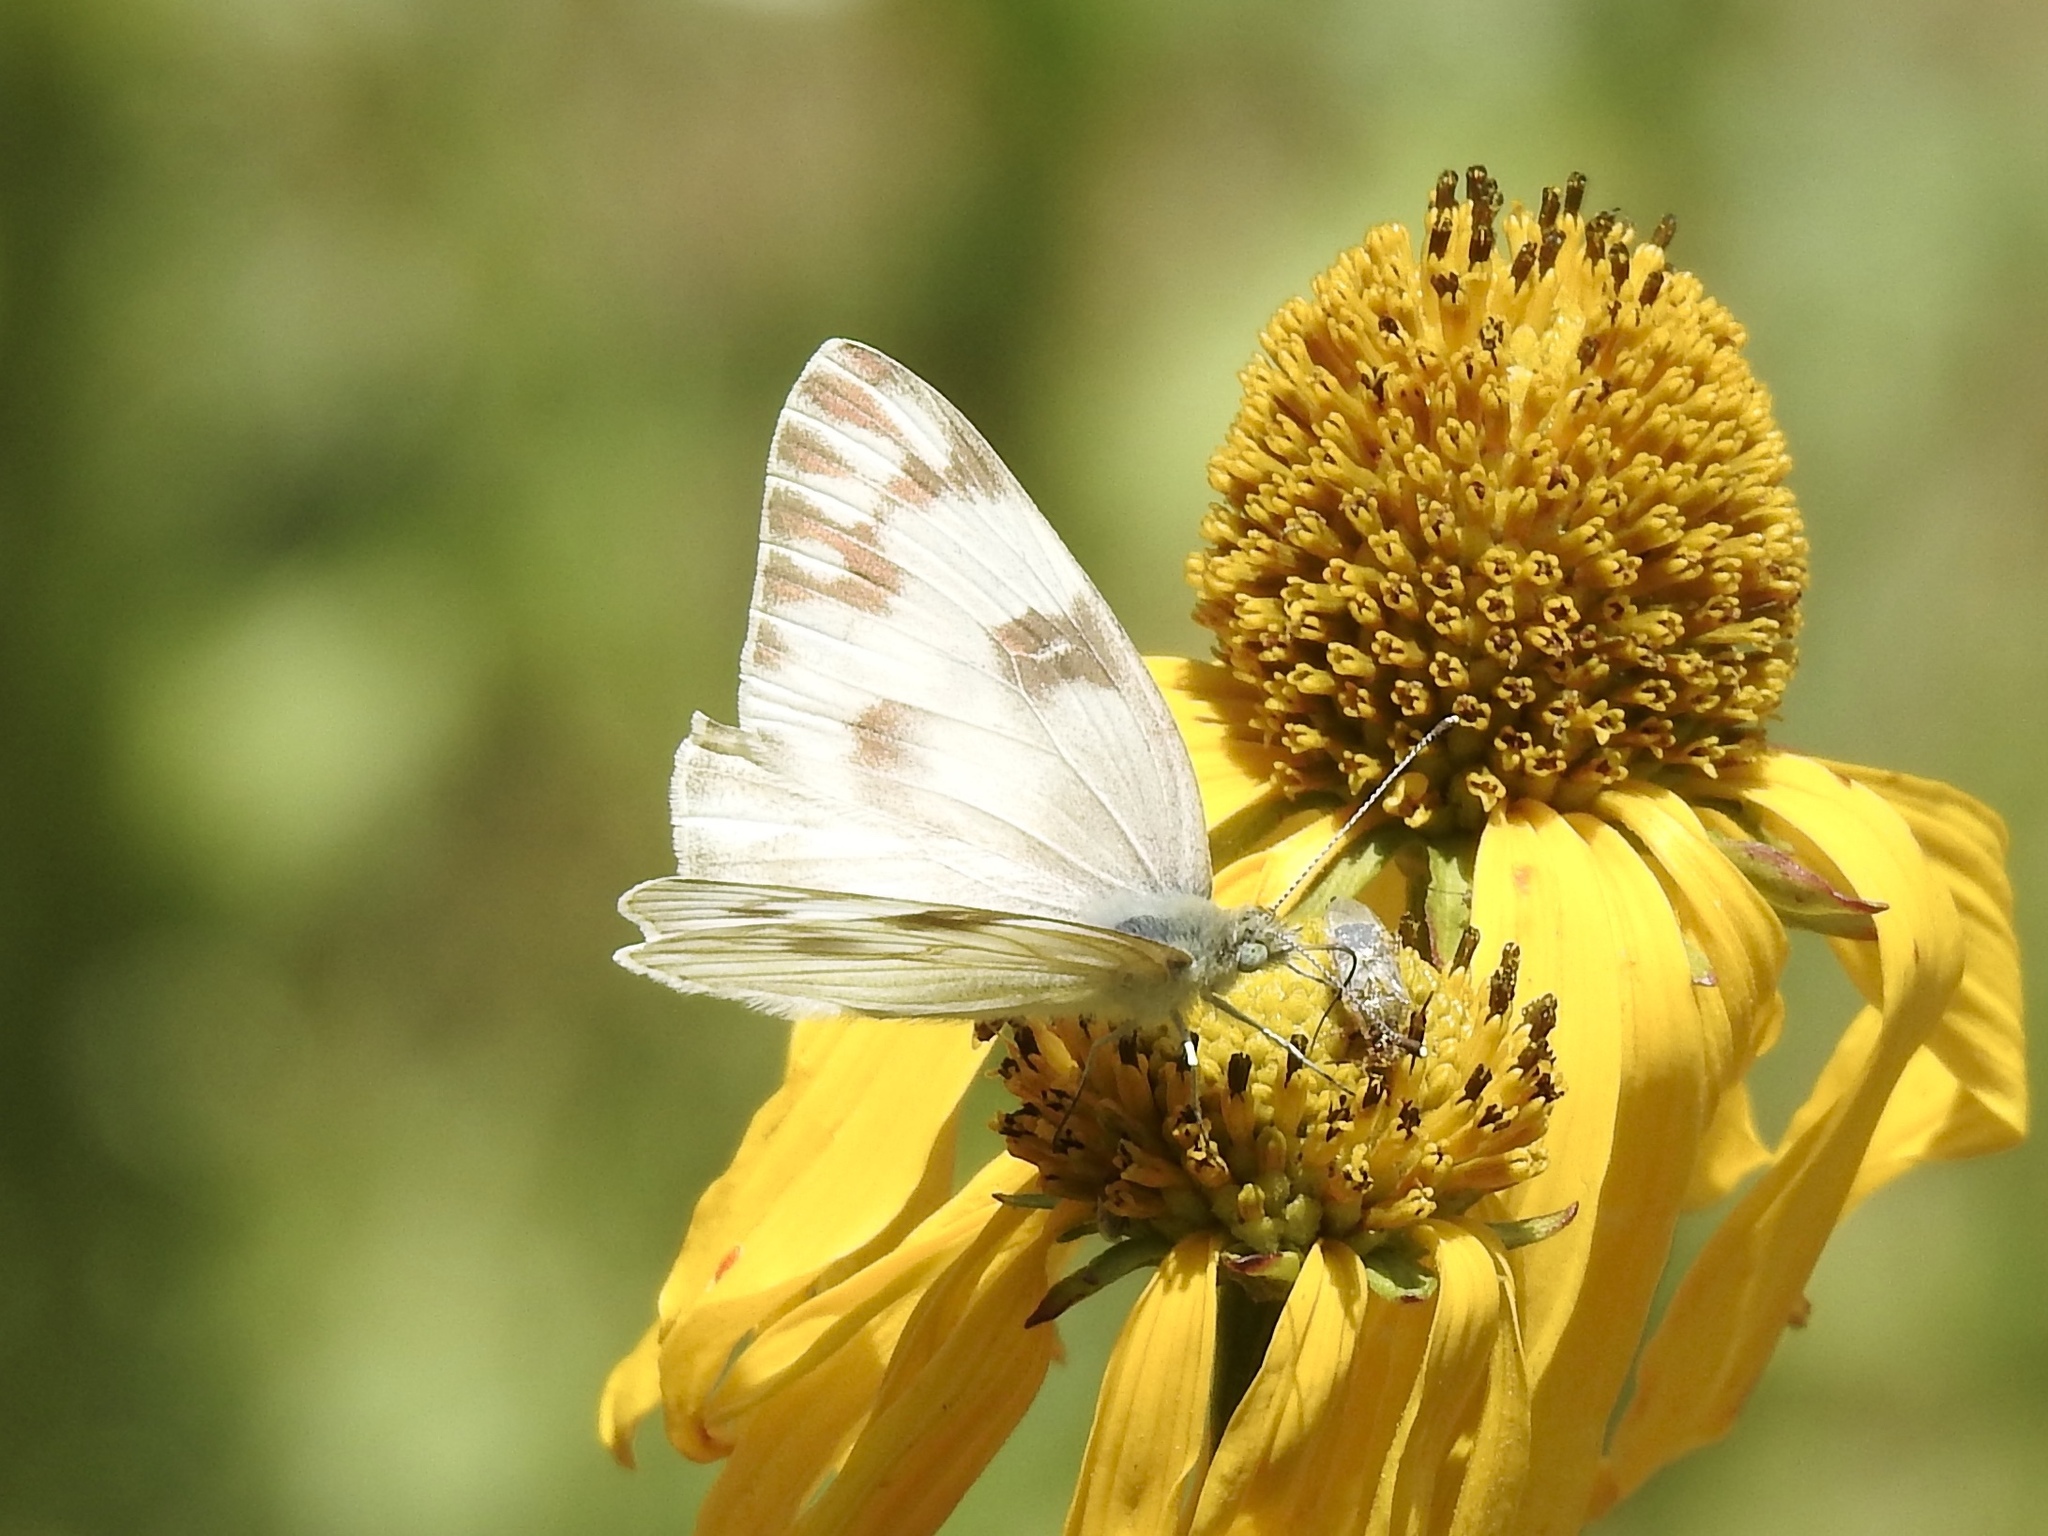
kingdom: Animalia
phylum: Arthropoda
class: Insecta
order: Lepidoptera
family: Pieridae
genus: Pontia
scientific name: Pontia protodice
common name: Checkered white
